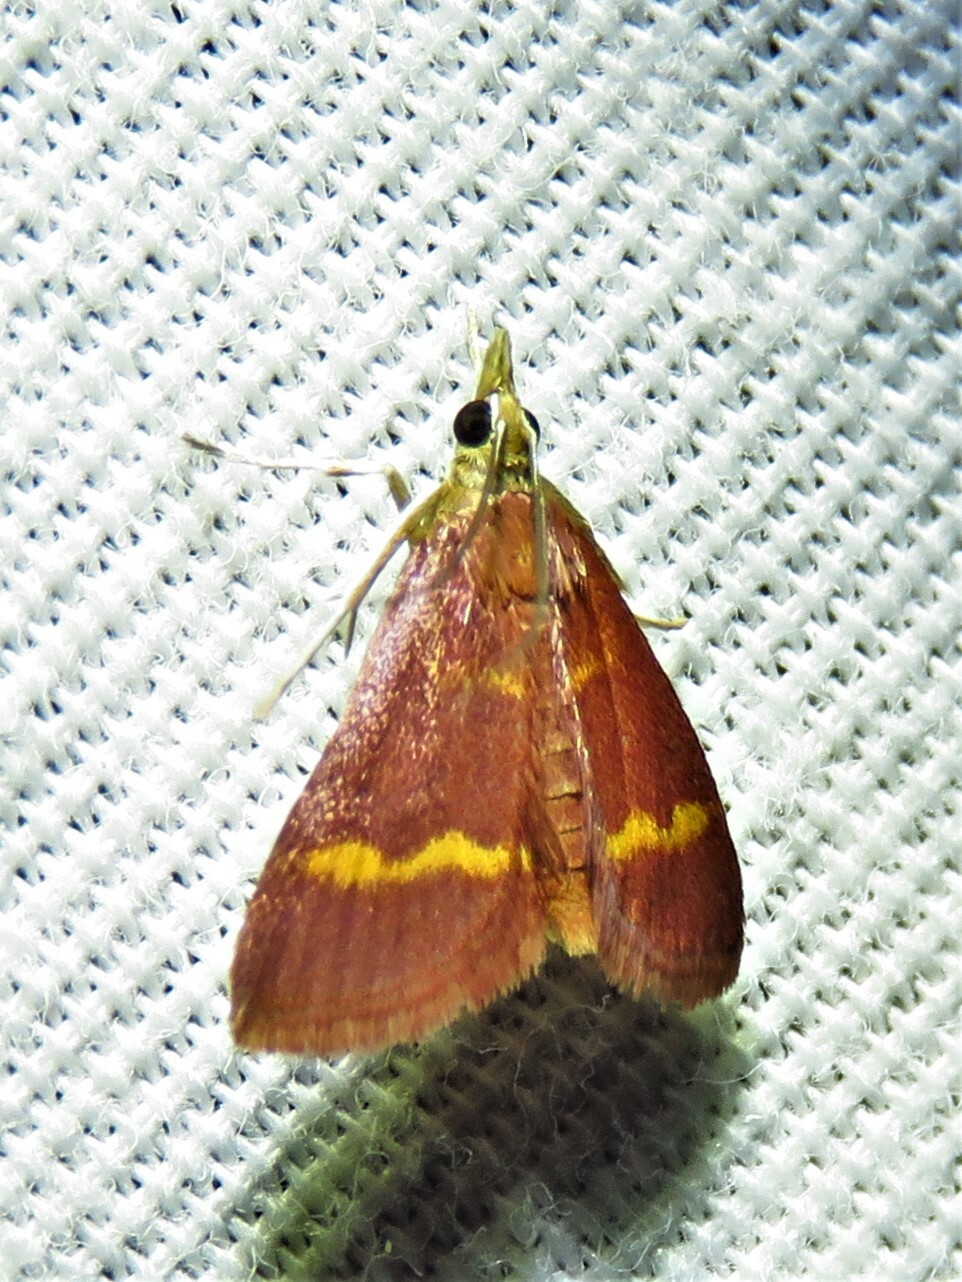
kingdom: Animalia
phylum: Arthropoda
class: Insecta
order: Lepidoptera
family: Crambidae
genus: Pyrausta
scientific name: Pyrausta pseuderosnealis
